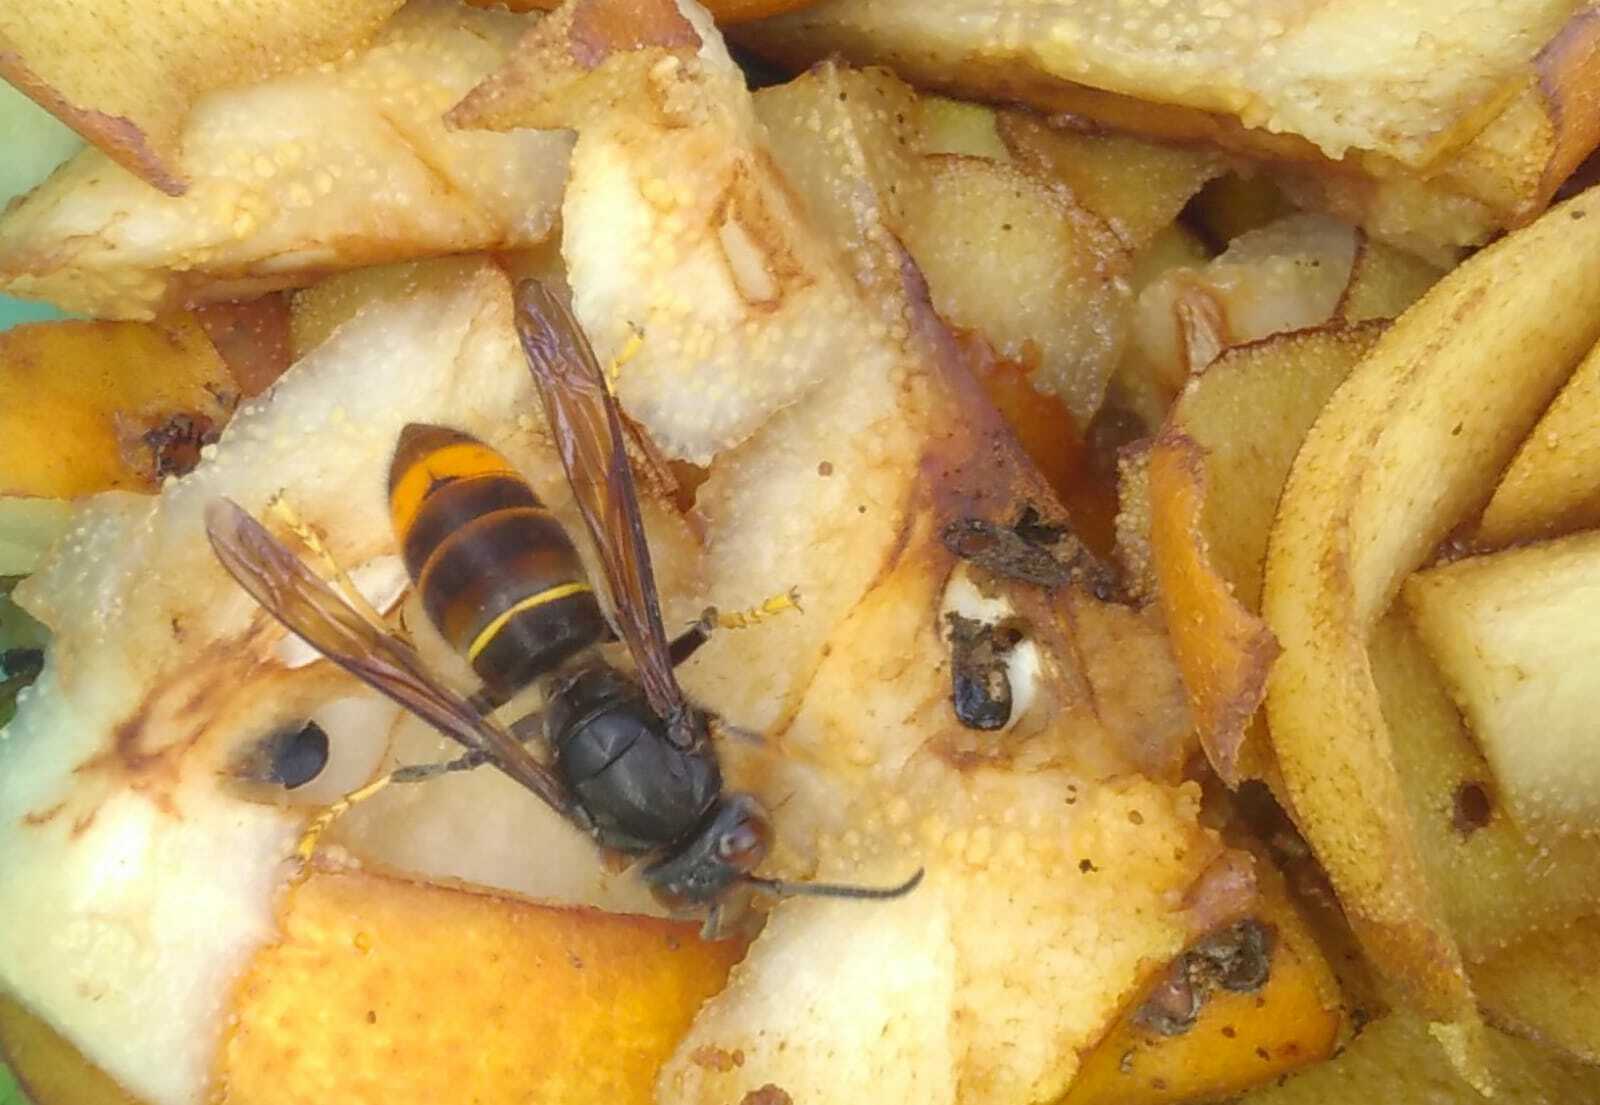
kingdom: Animalia
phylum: Arthropoda
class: Insecta
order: Hymenoptera
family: Vespidae
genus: Vespa
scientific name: Vespa velutina
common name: Asian hornet
